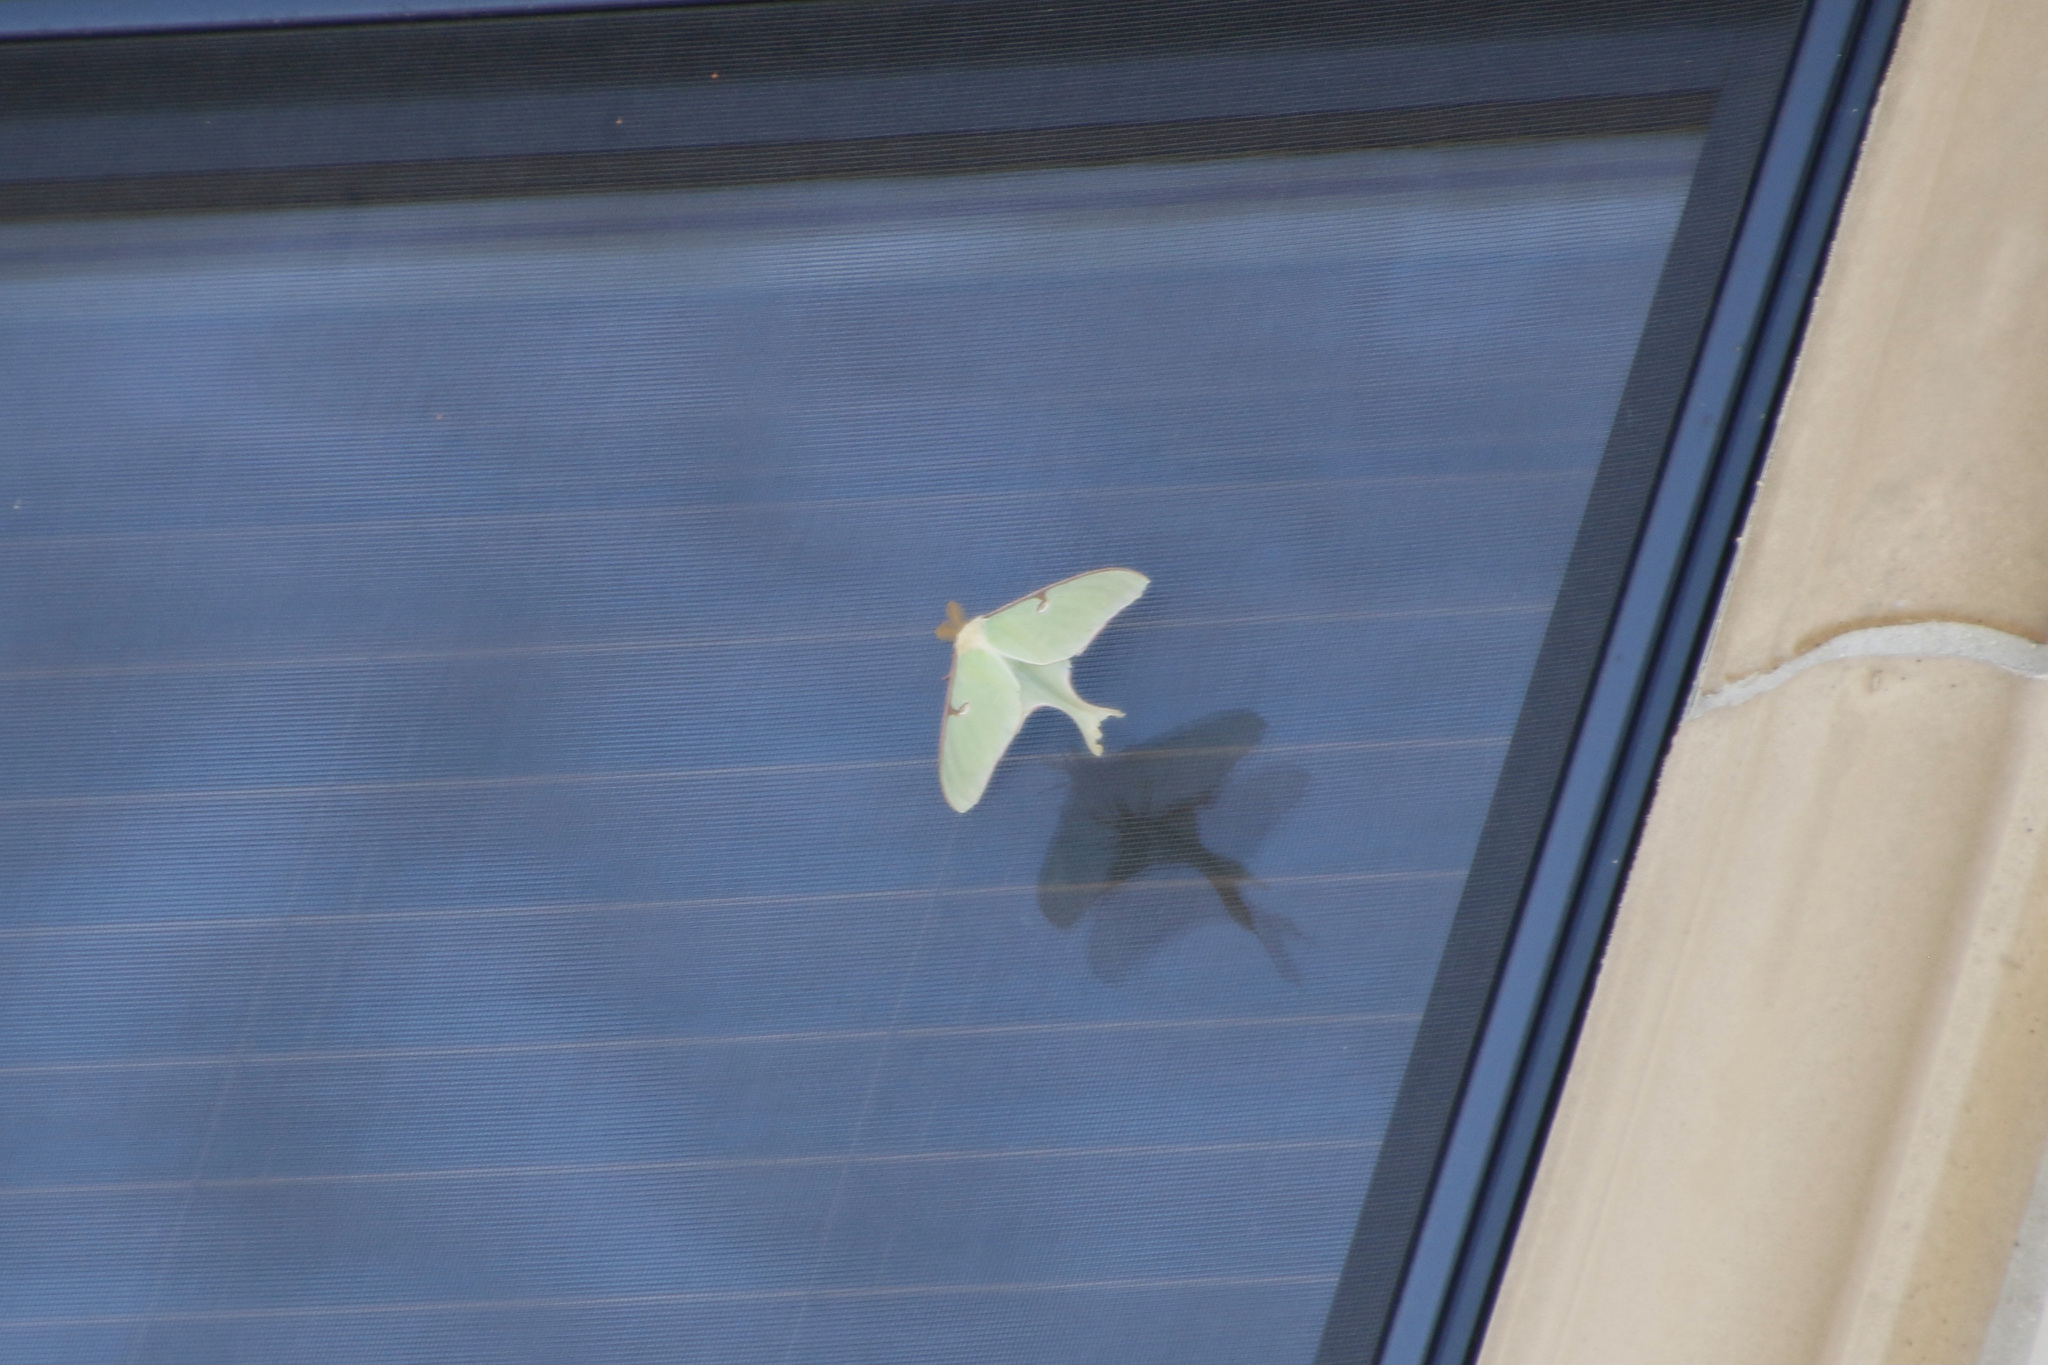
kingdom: Animalia
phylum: Arthropoda
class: Insecta
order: Lepidoptera
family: Saturniidae
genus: Actias
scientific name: Actias luna
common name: Luna moth
